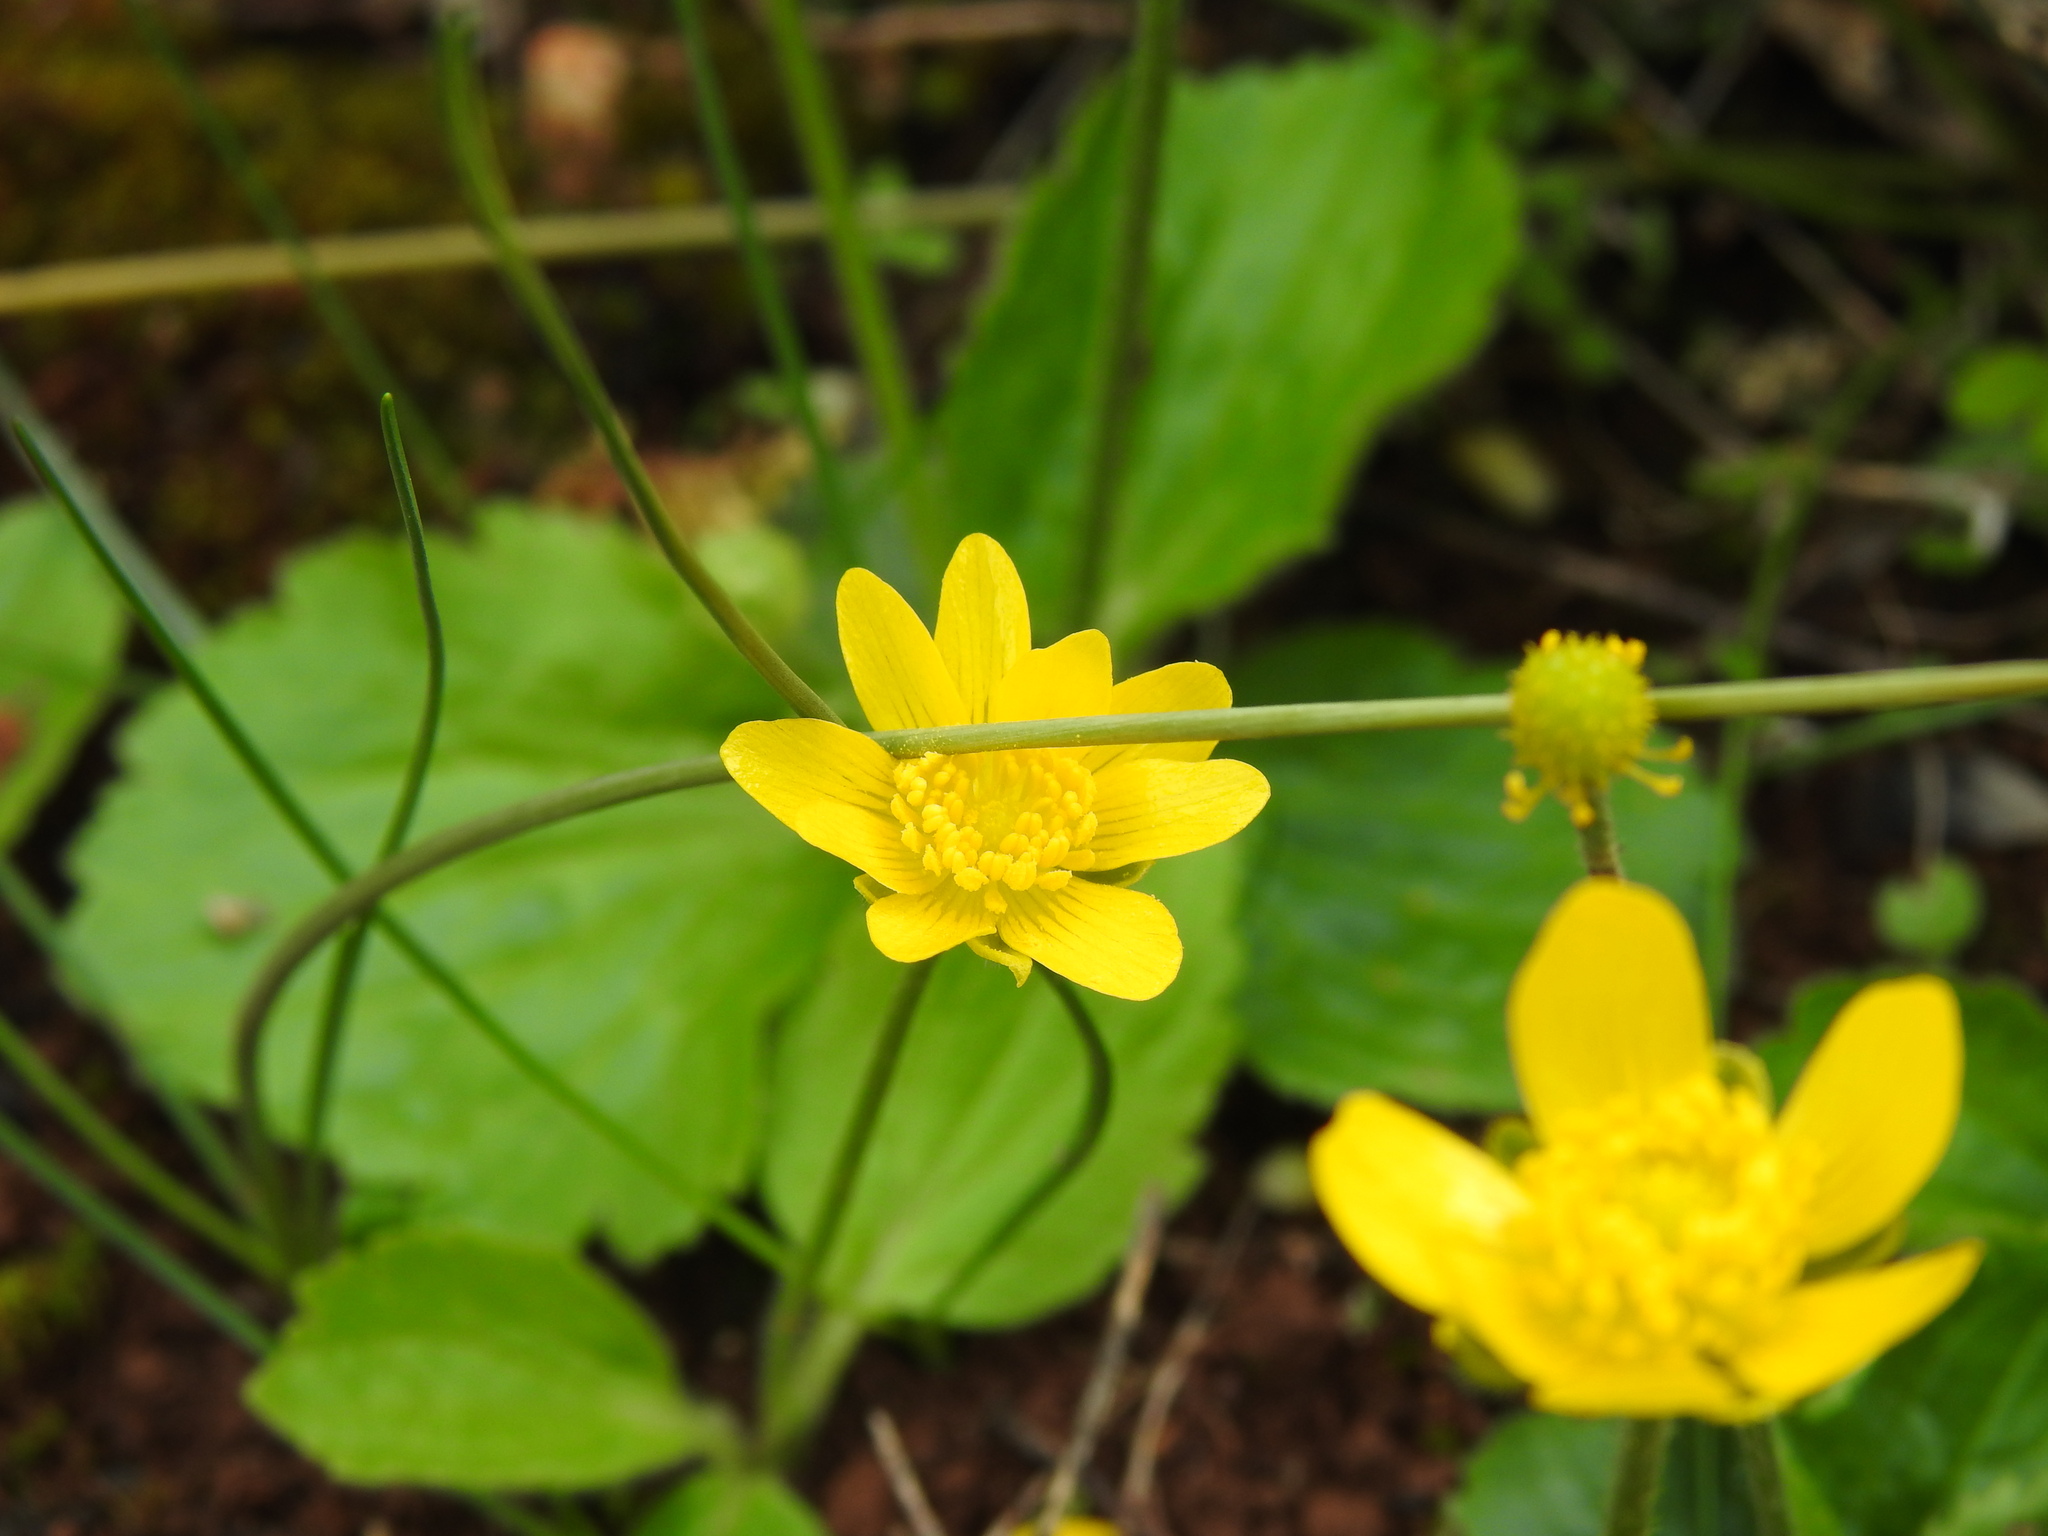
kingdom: Plantae
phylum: Tracheophyta
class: Magnoliopsida
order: Ranunculales
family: Ranunculaceae
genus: Ranunculus
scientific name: Ranunculus bullatus
